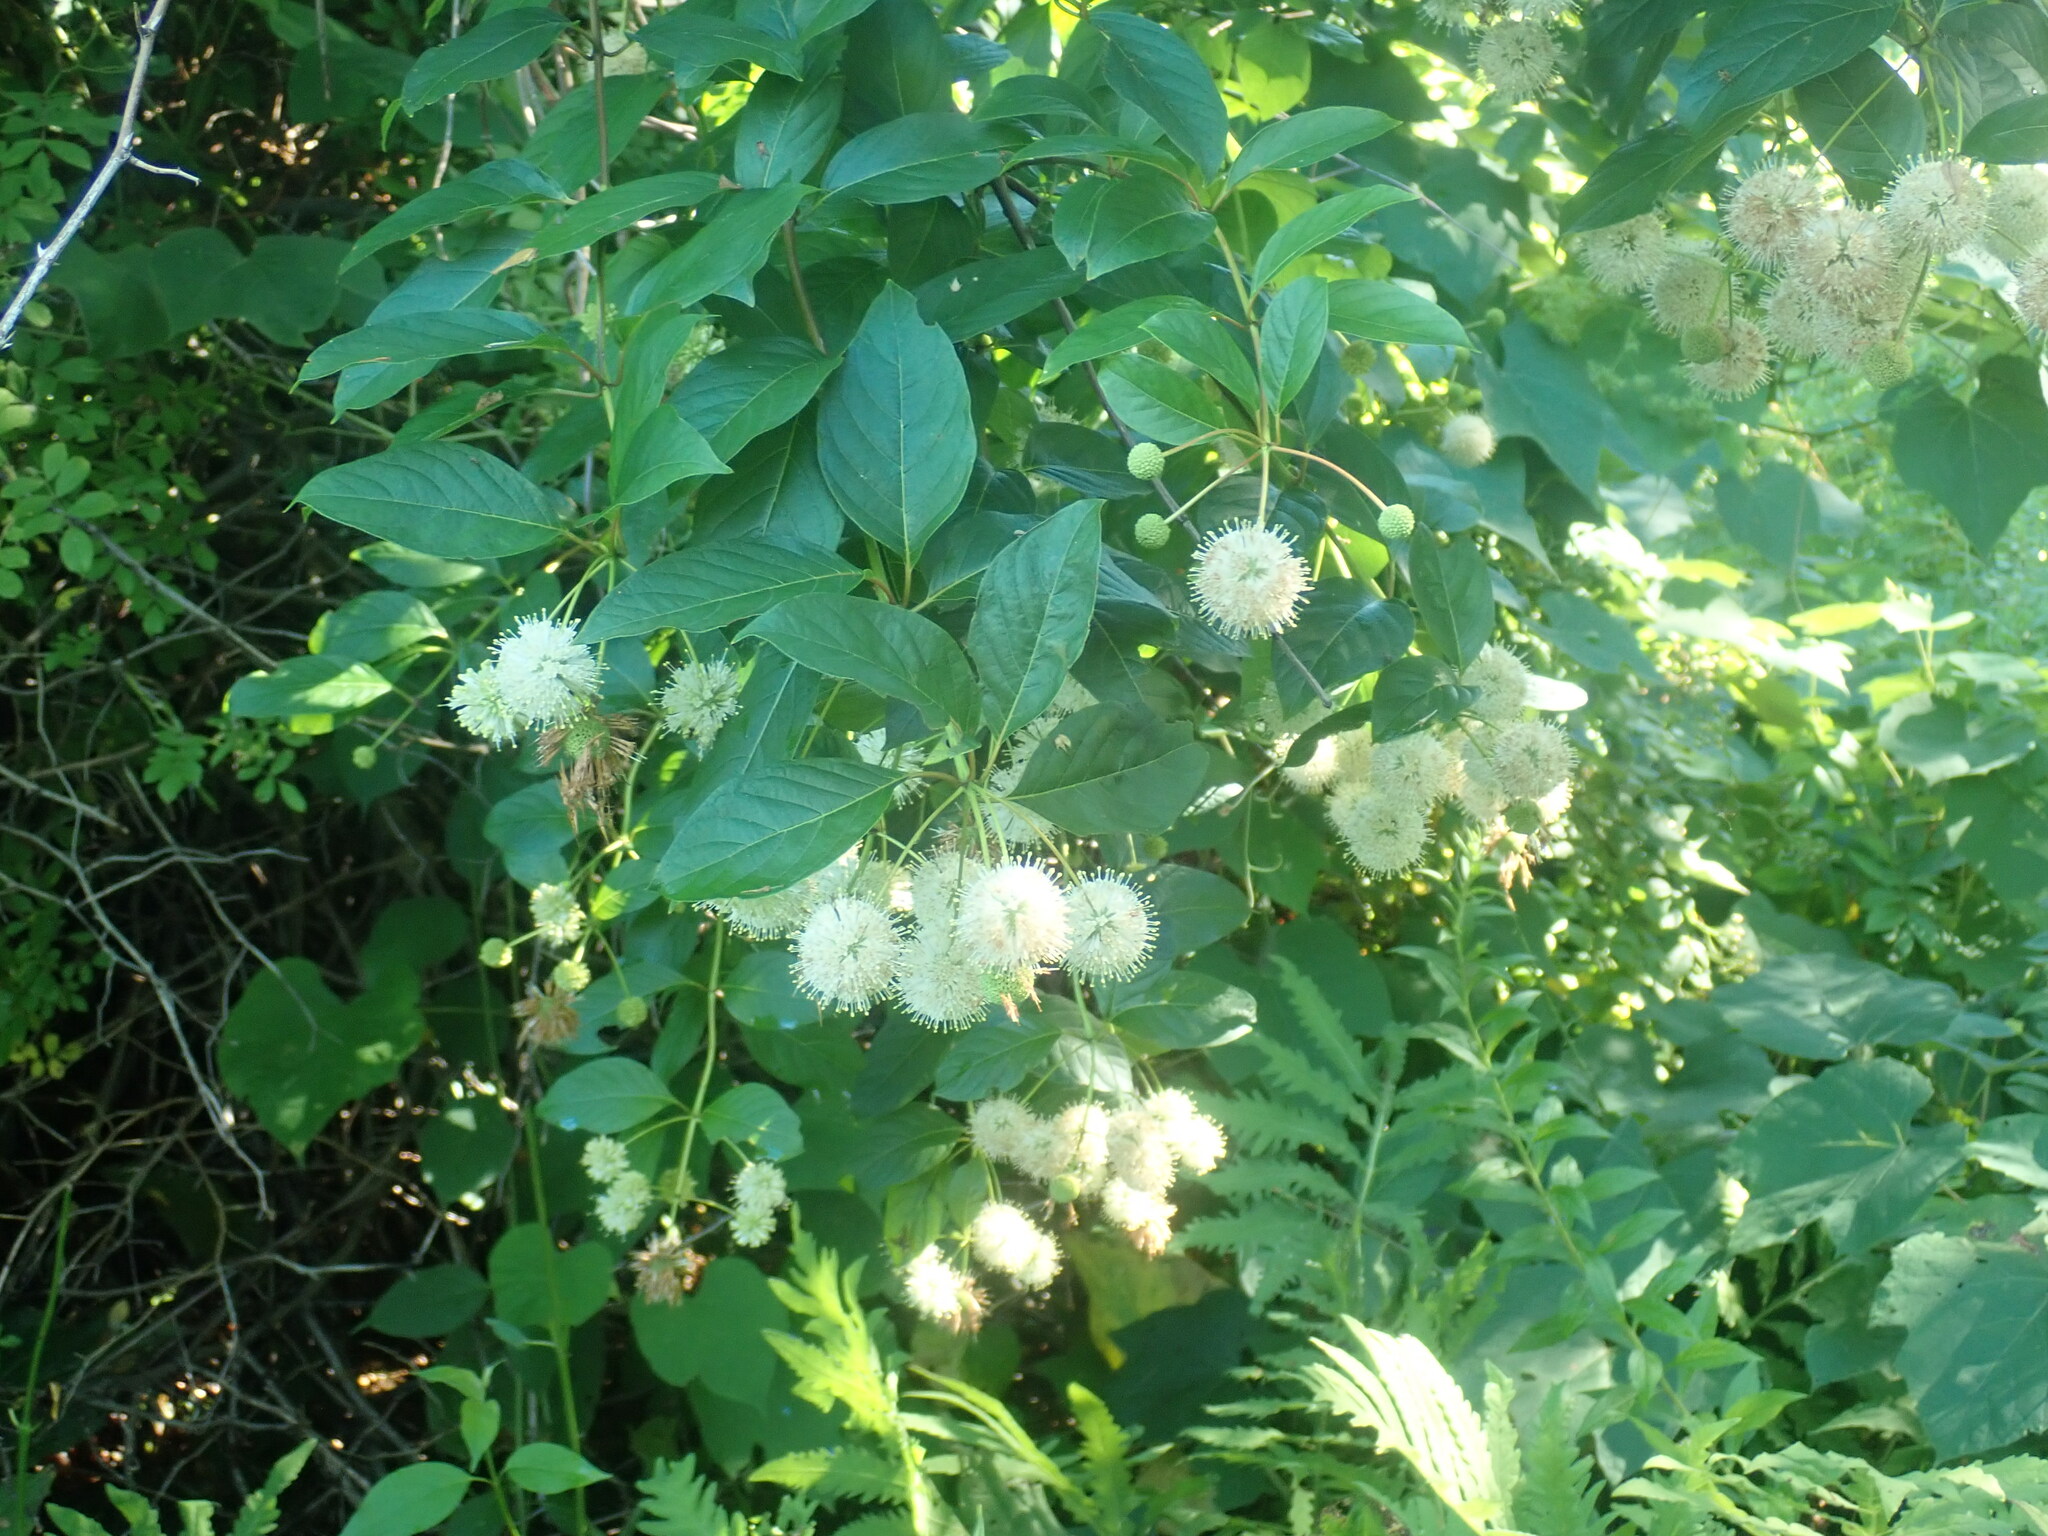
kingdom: Plantae
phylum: Tracheophyta
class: Magnoliopsida
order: Gentianales
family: Rubiaceae
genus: Cephalanthus
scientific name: Cephalanthus occidentalis
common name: Button-willow
